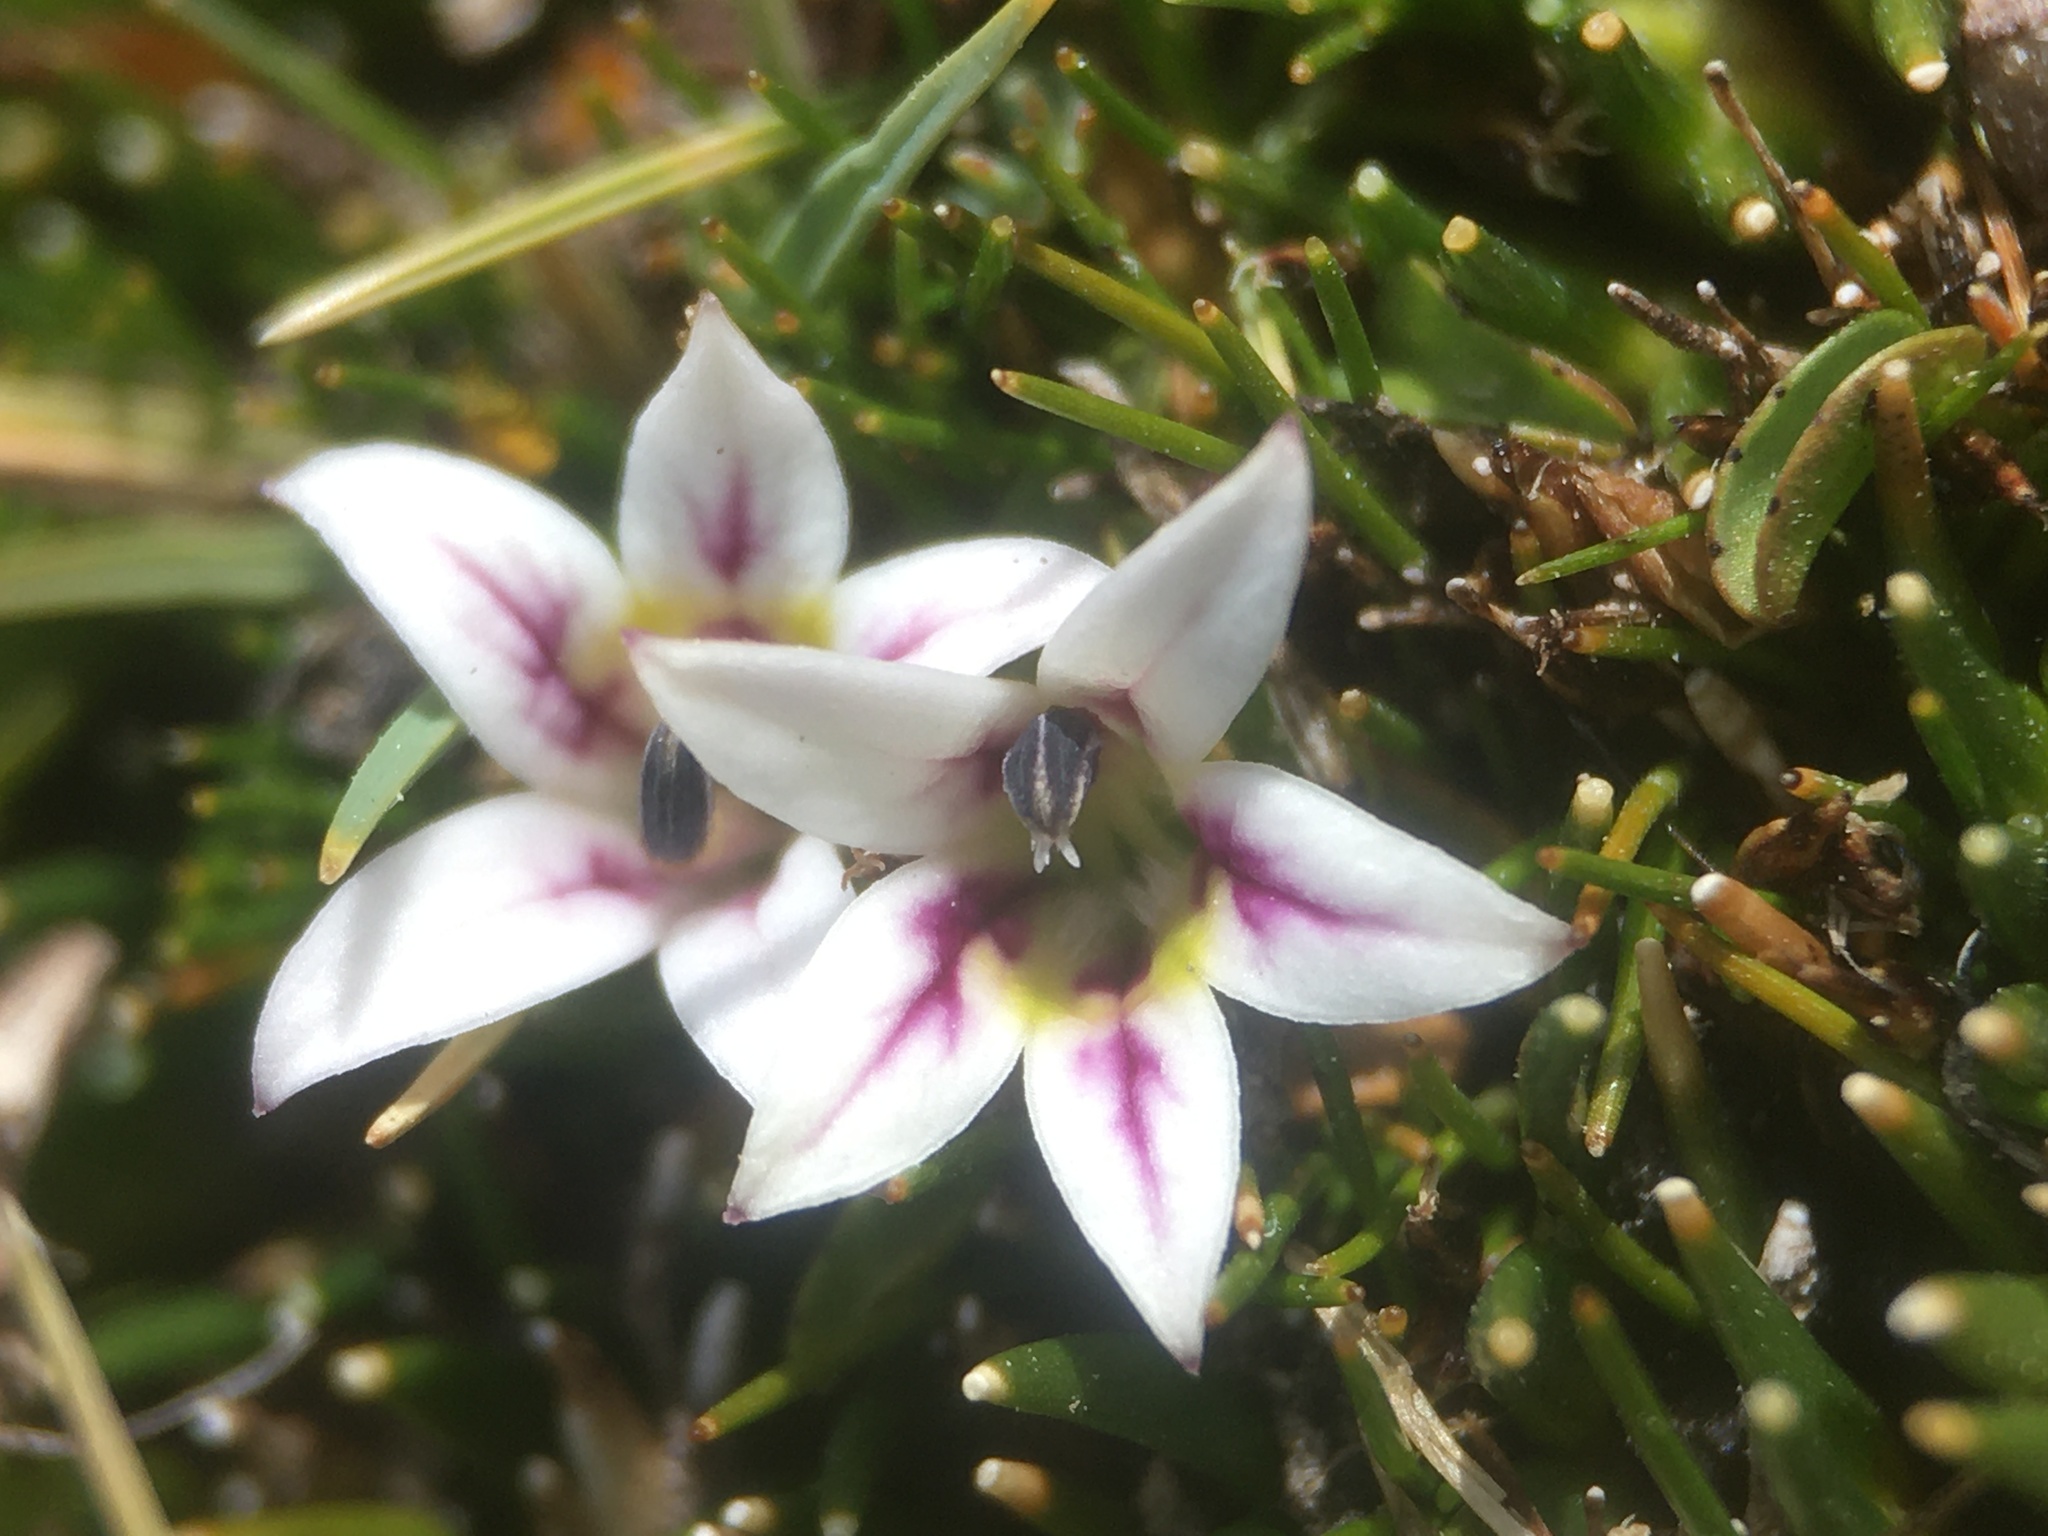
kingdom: Plantae
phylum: Tracheophyta
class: Magnoliopsida
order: Asterales
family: Campanulaceae
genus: Lobelia
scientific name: Lobelia oligophylla
